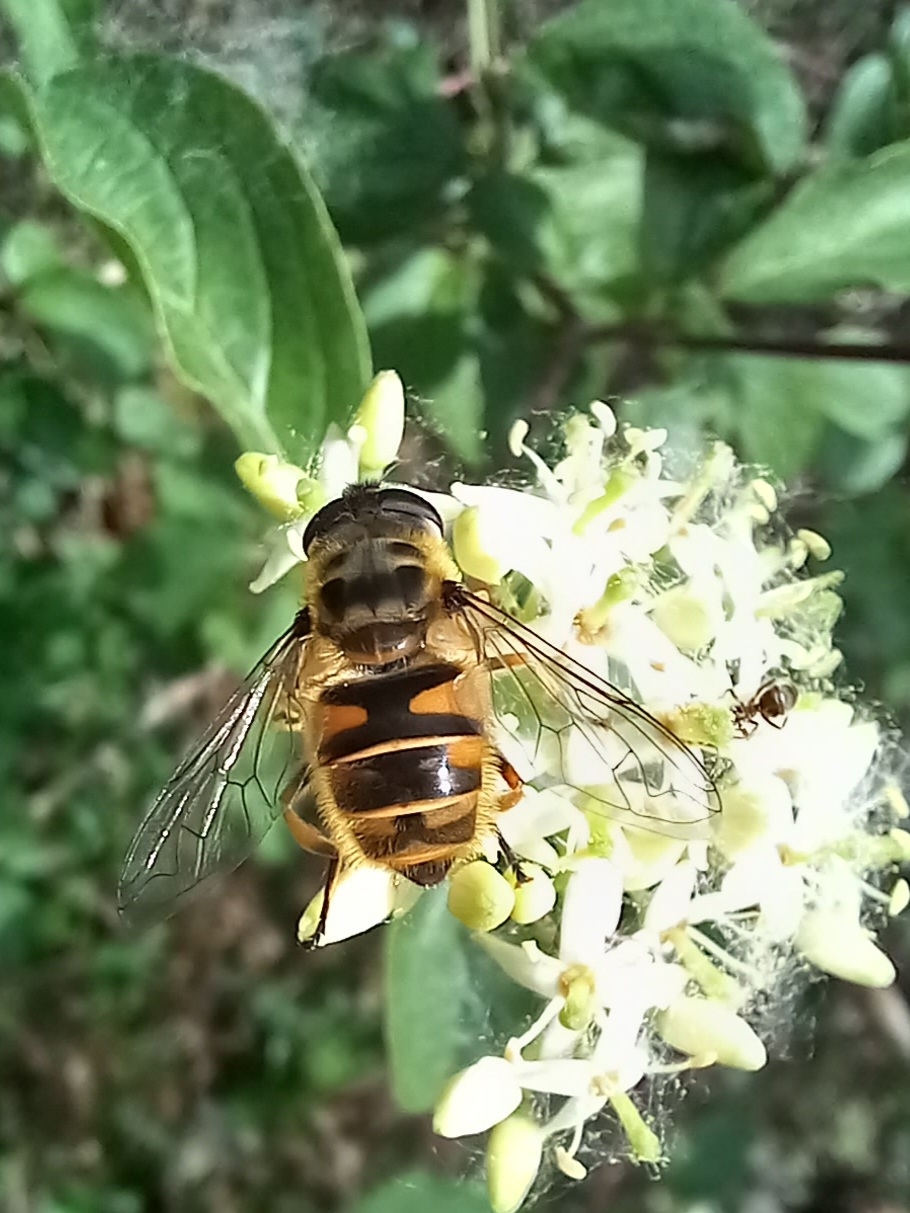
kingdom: Animalia
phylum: Arthropoda
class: Insecta
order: Diptera
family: Syrphidae
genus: Myathropa
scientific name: Myathropa florea
